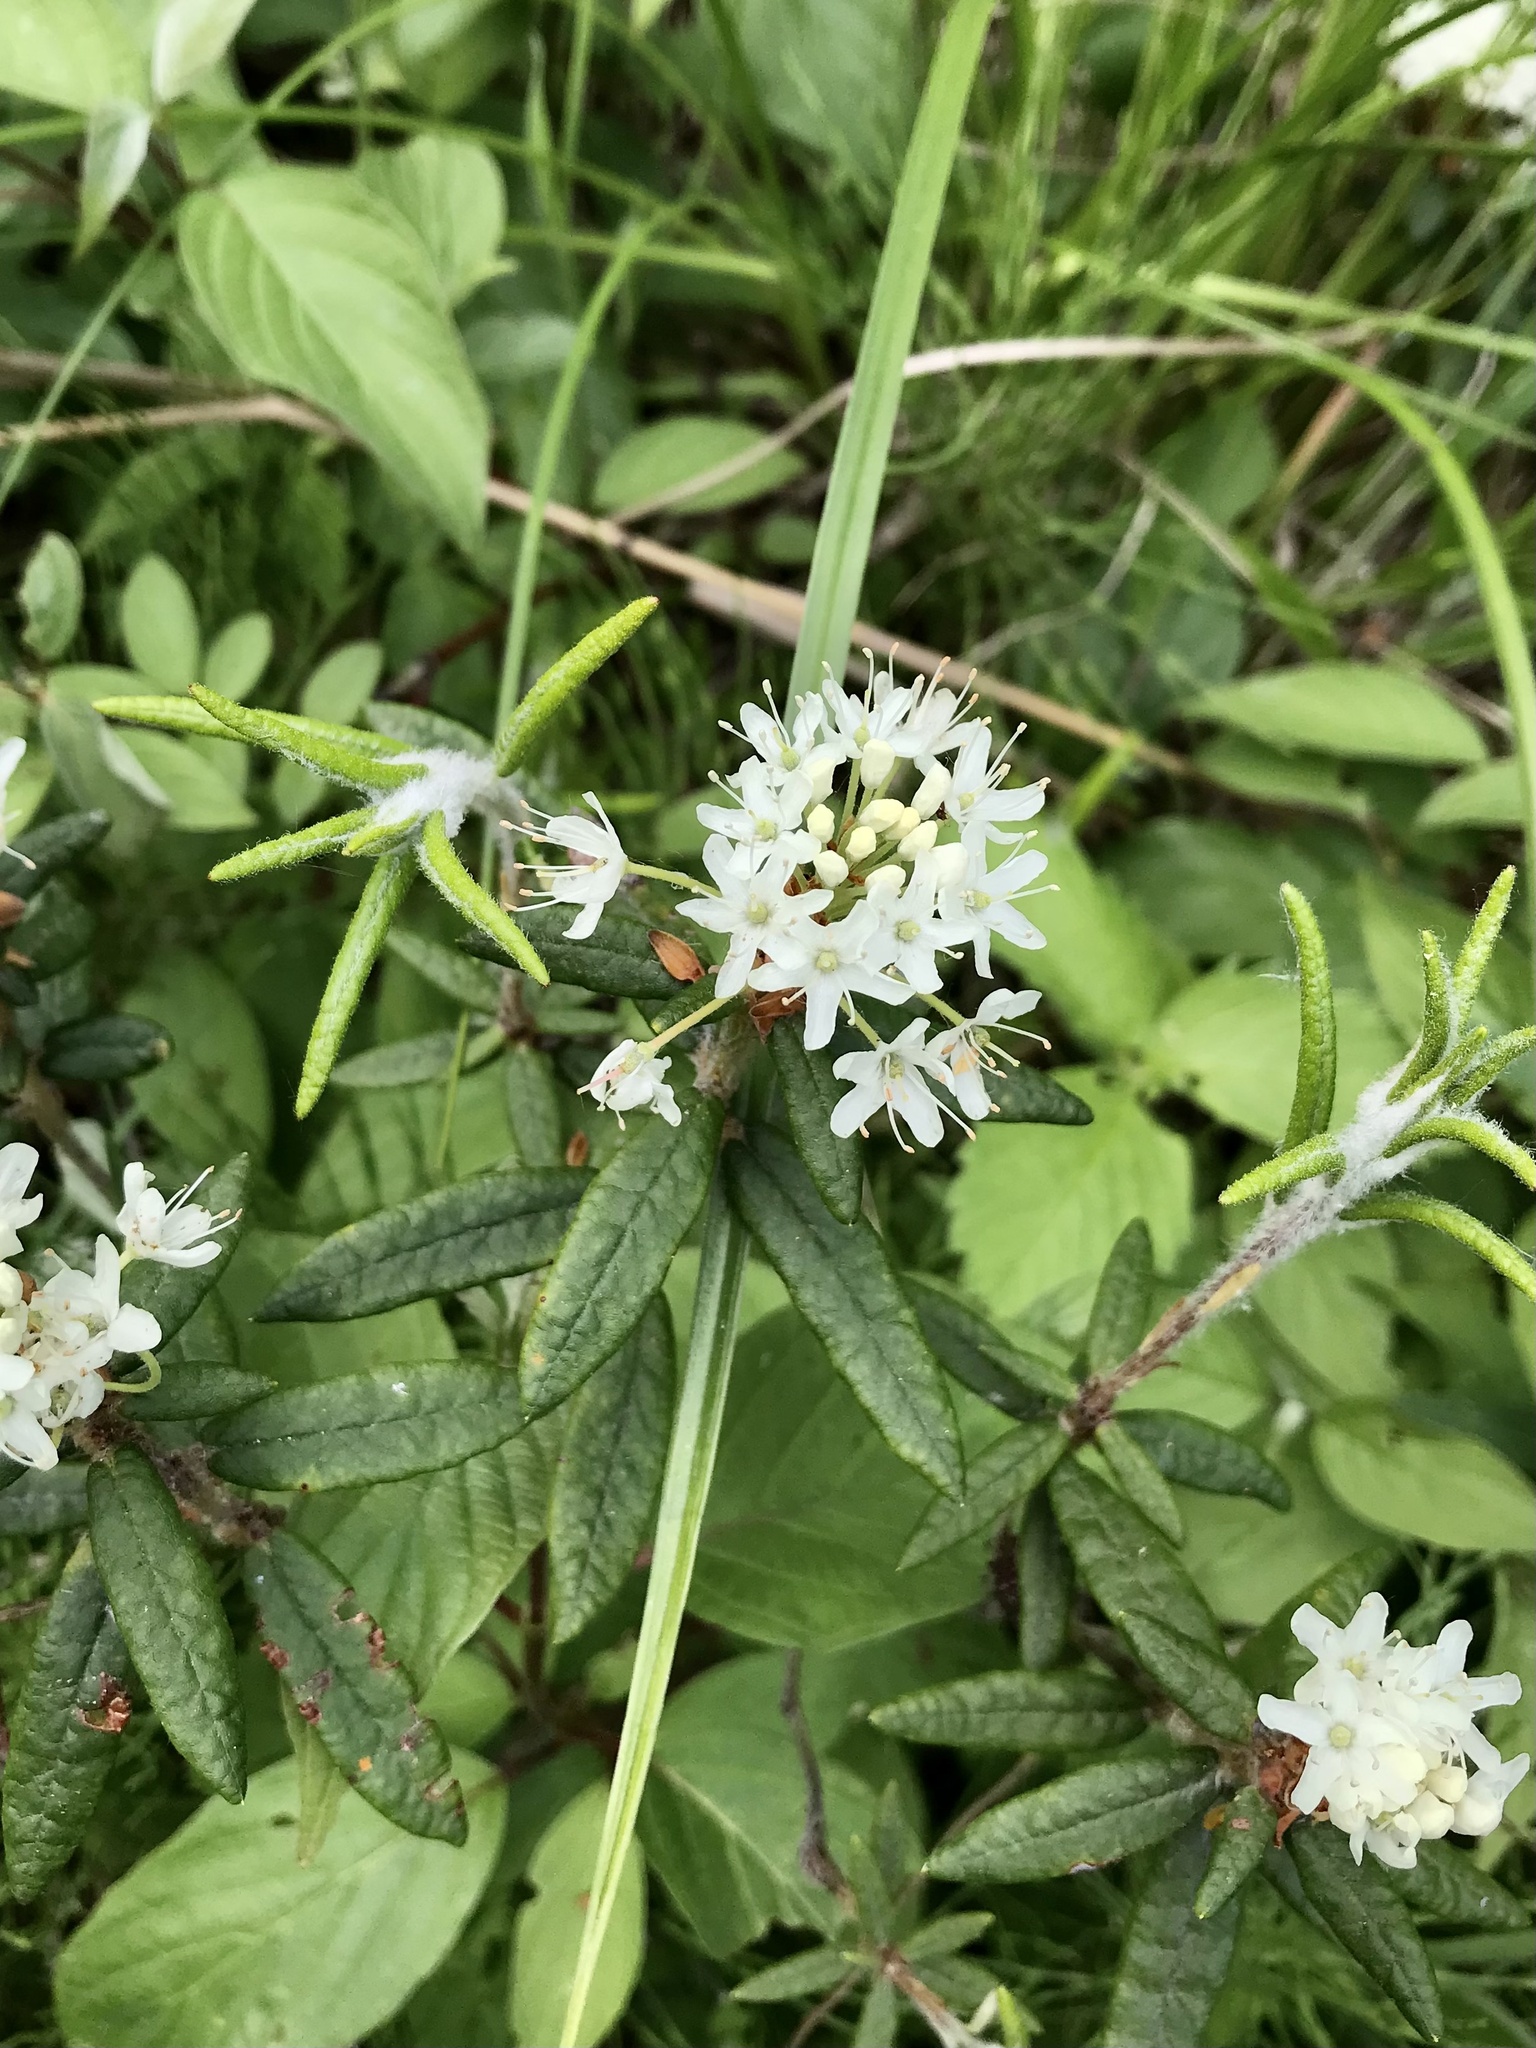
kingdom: Plantae
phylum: Tracheophyta
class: Magnoliopsida
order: Ericales
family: Ericaceae
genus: Rhododendron
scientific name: Rhododendron groenlandicum
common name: Bog labrador tea
